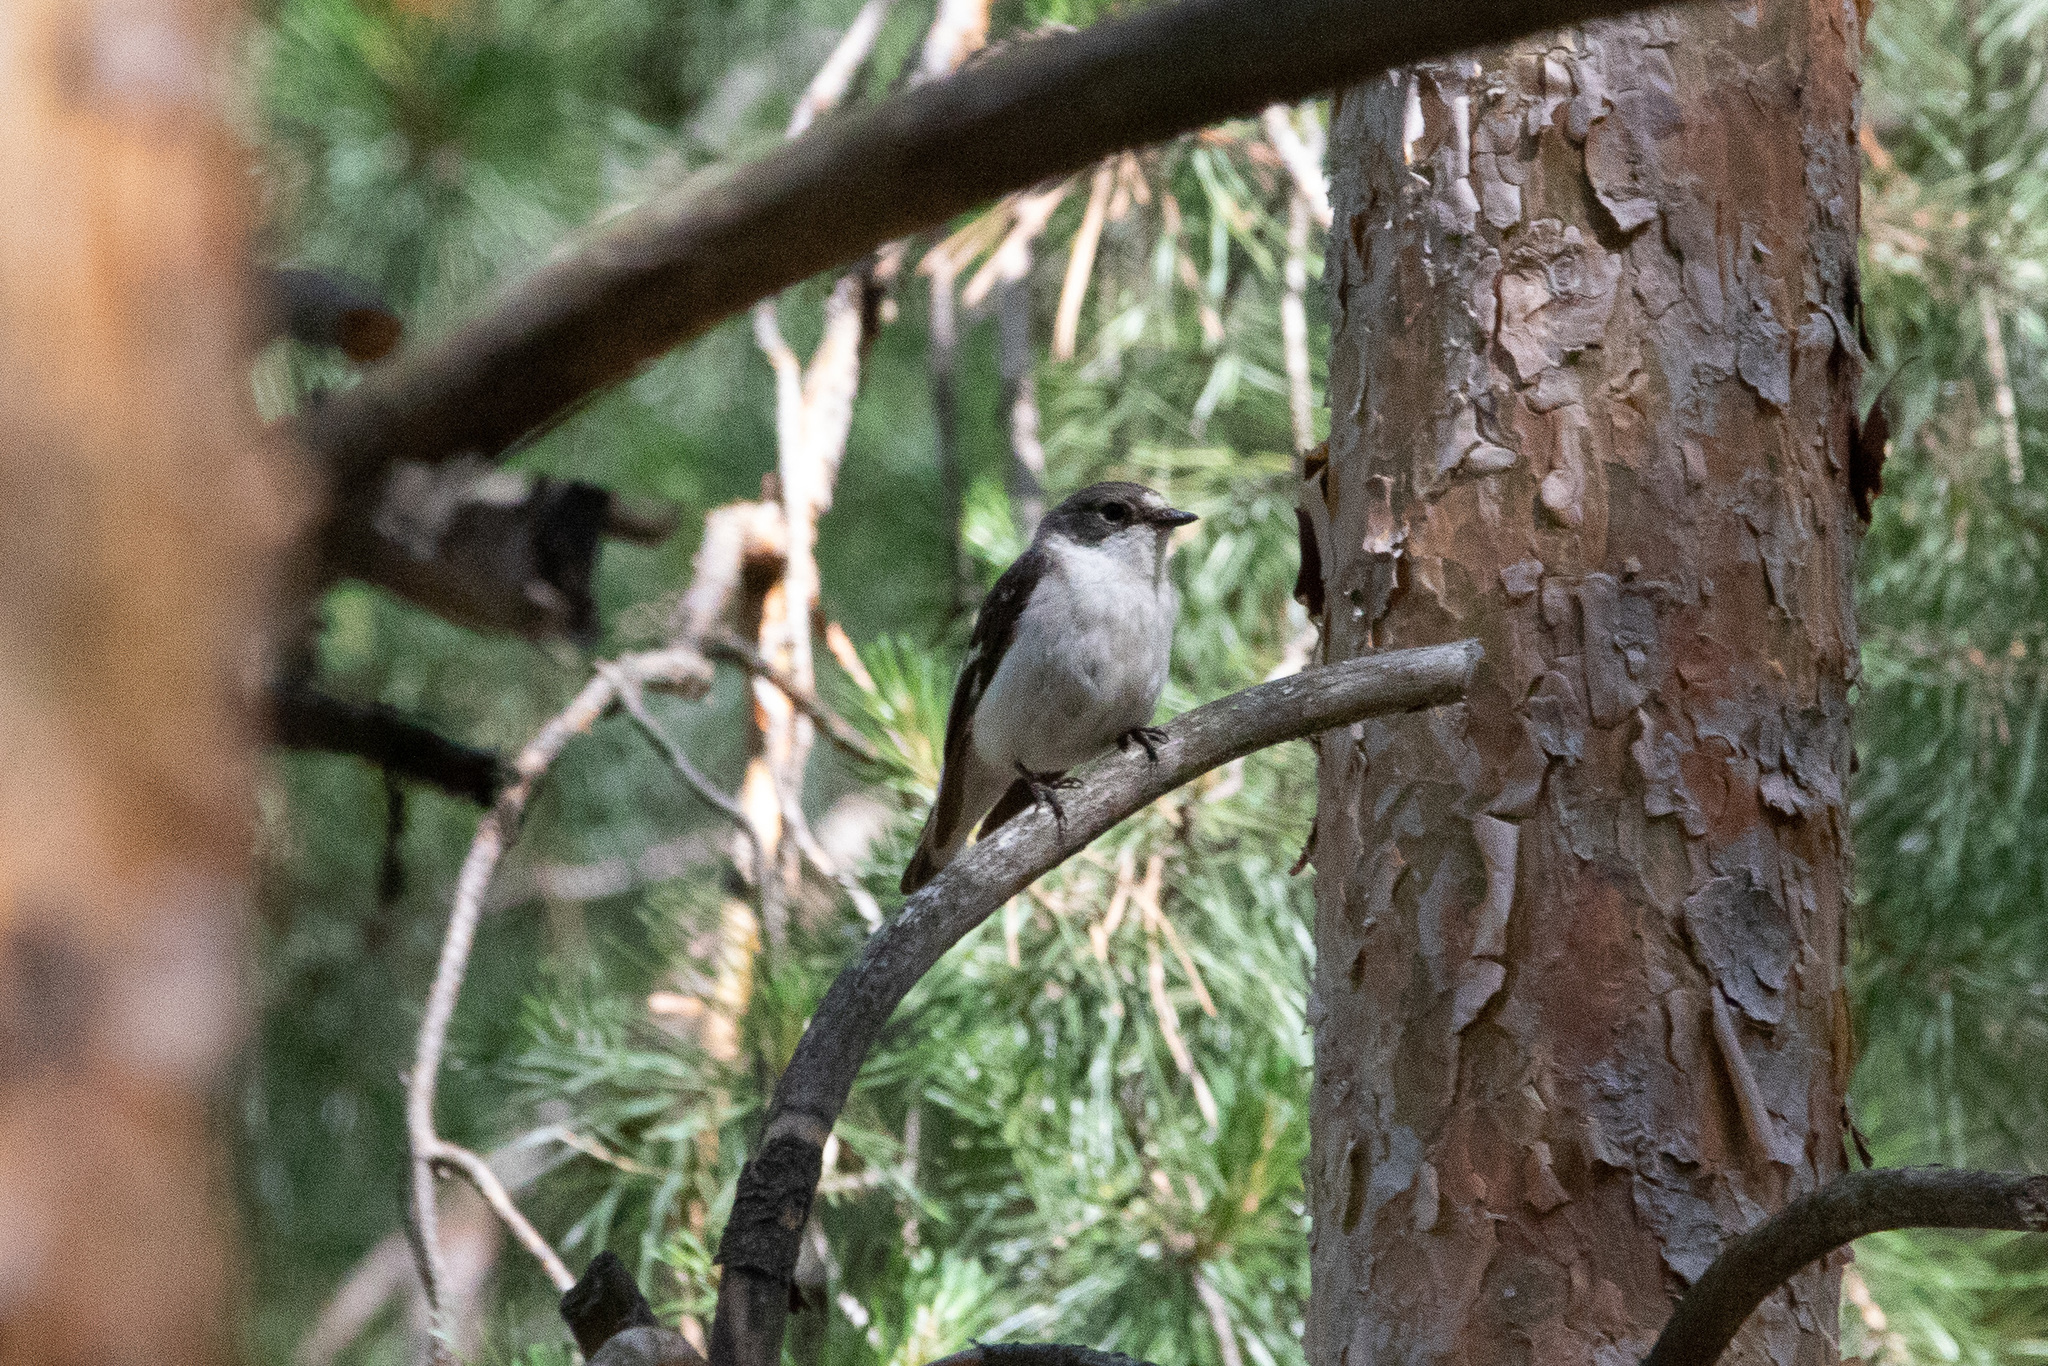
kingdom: Animalia
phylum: Chordata
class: Aves
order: Passeriformes
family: Muscicapidae
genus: Ficedula
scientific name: Ficedula hypoleuca
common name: European pied flycatcher
